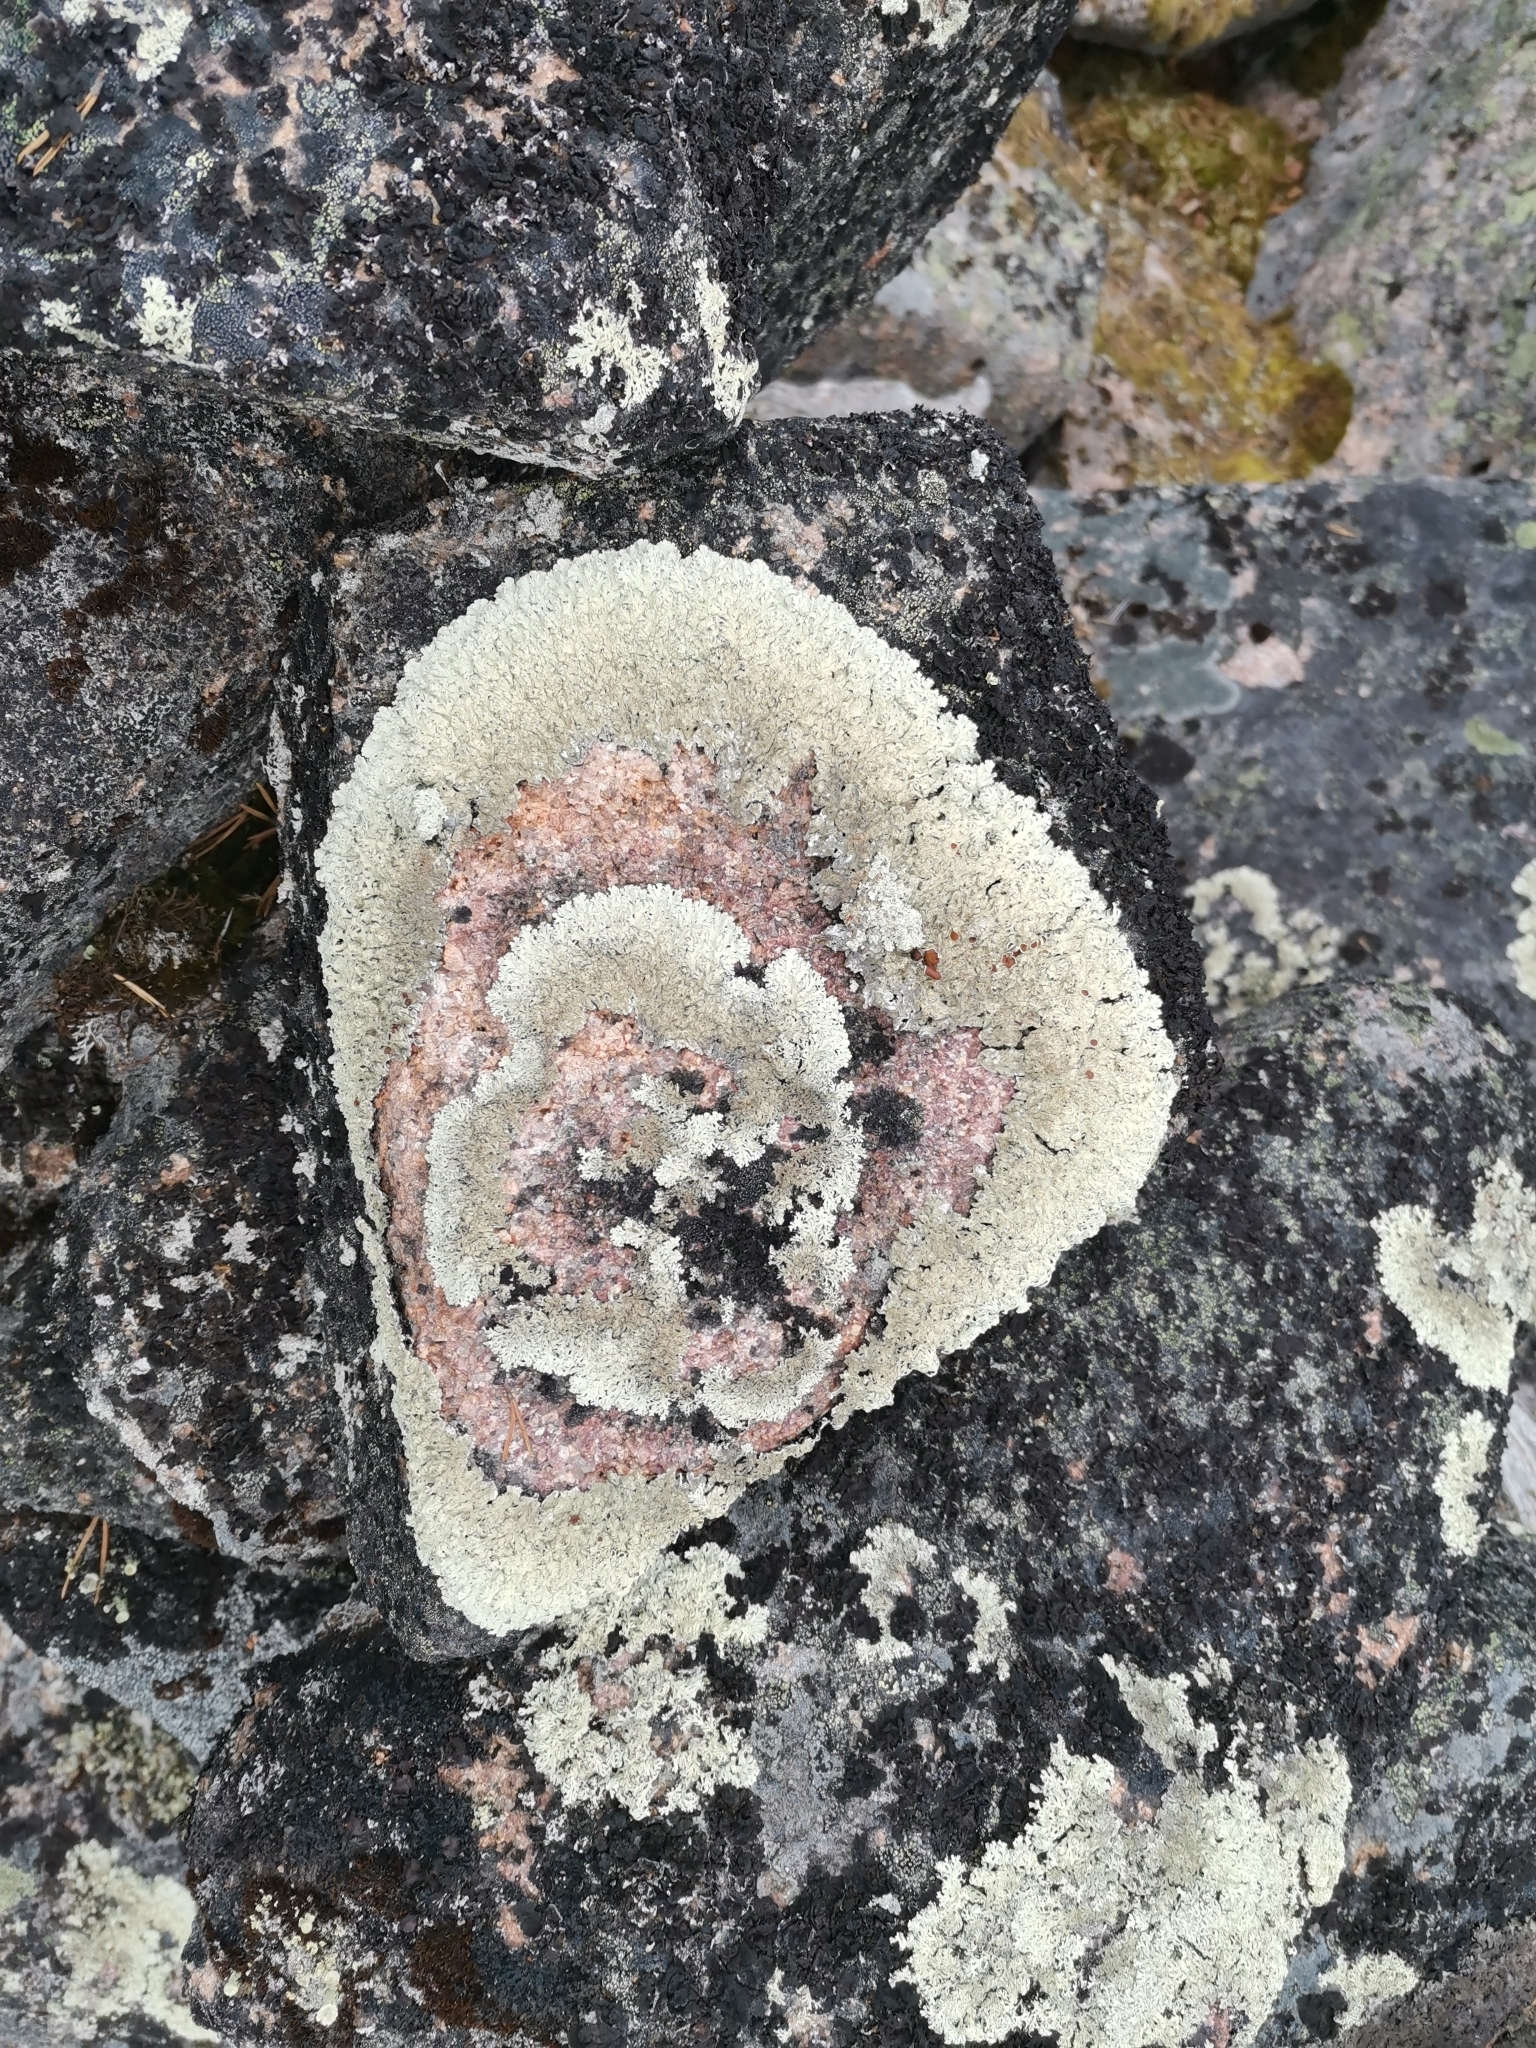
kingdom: Fungi
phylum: Ascomycota
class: Lecanoromycetes
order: Lecanorales
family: Parmeliaceae
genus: Arctoparmelia
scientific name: Arctoparmelia centrifuga
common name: Concentric ring lichen
